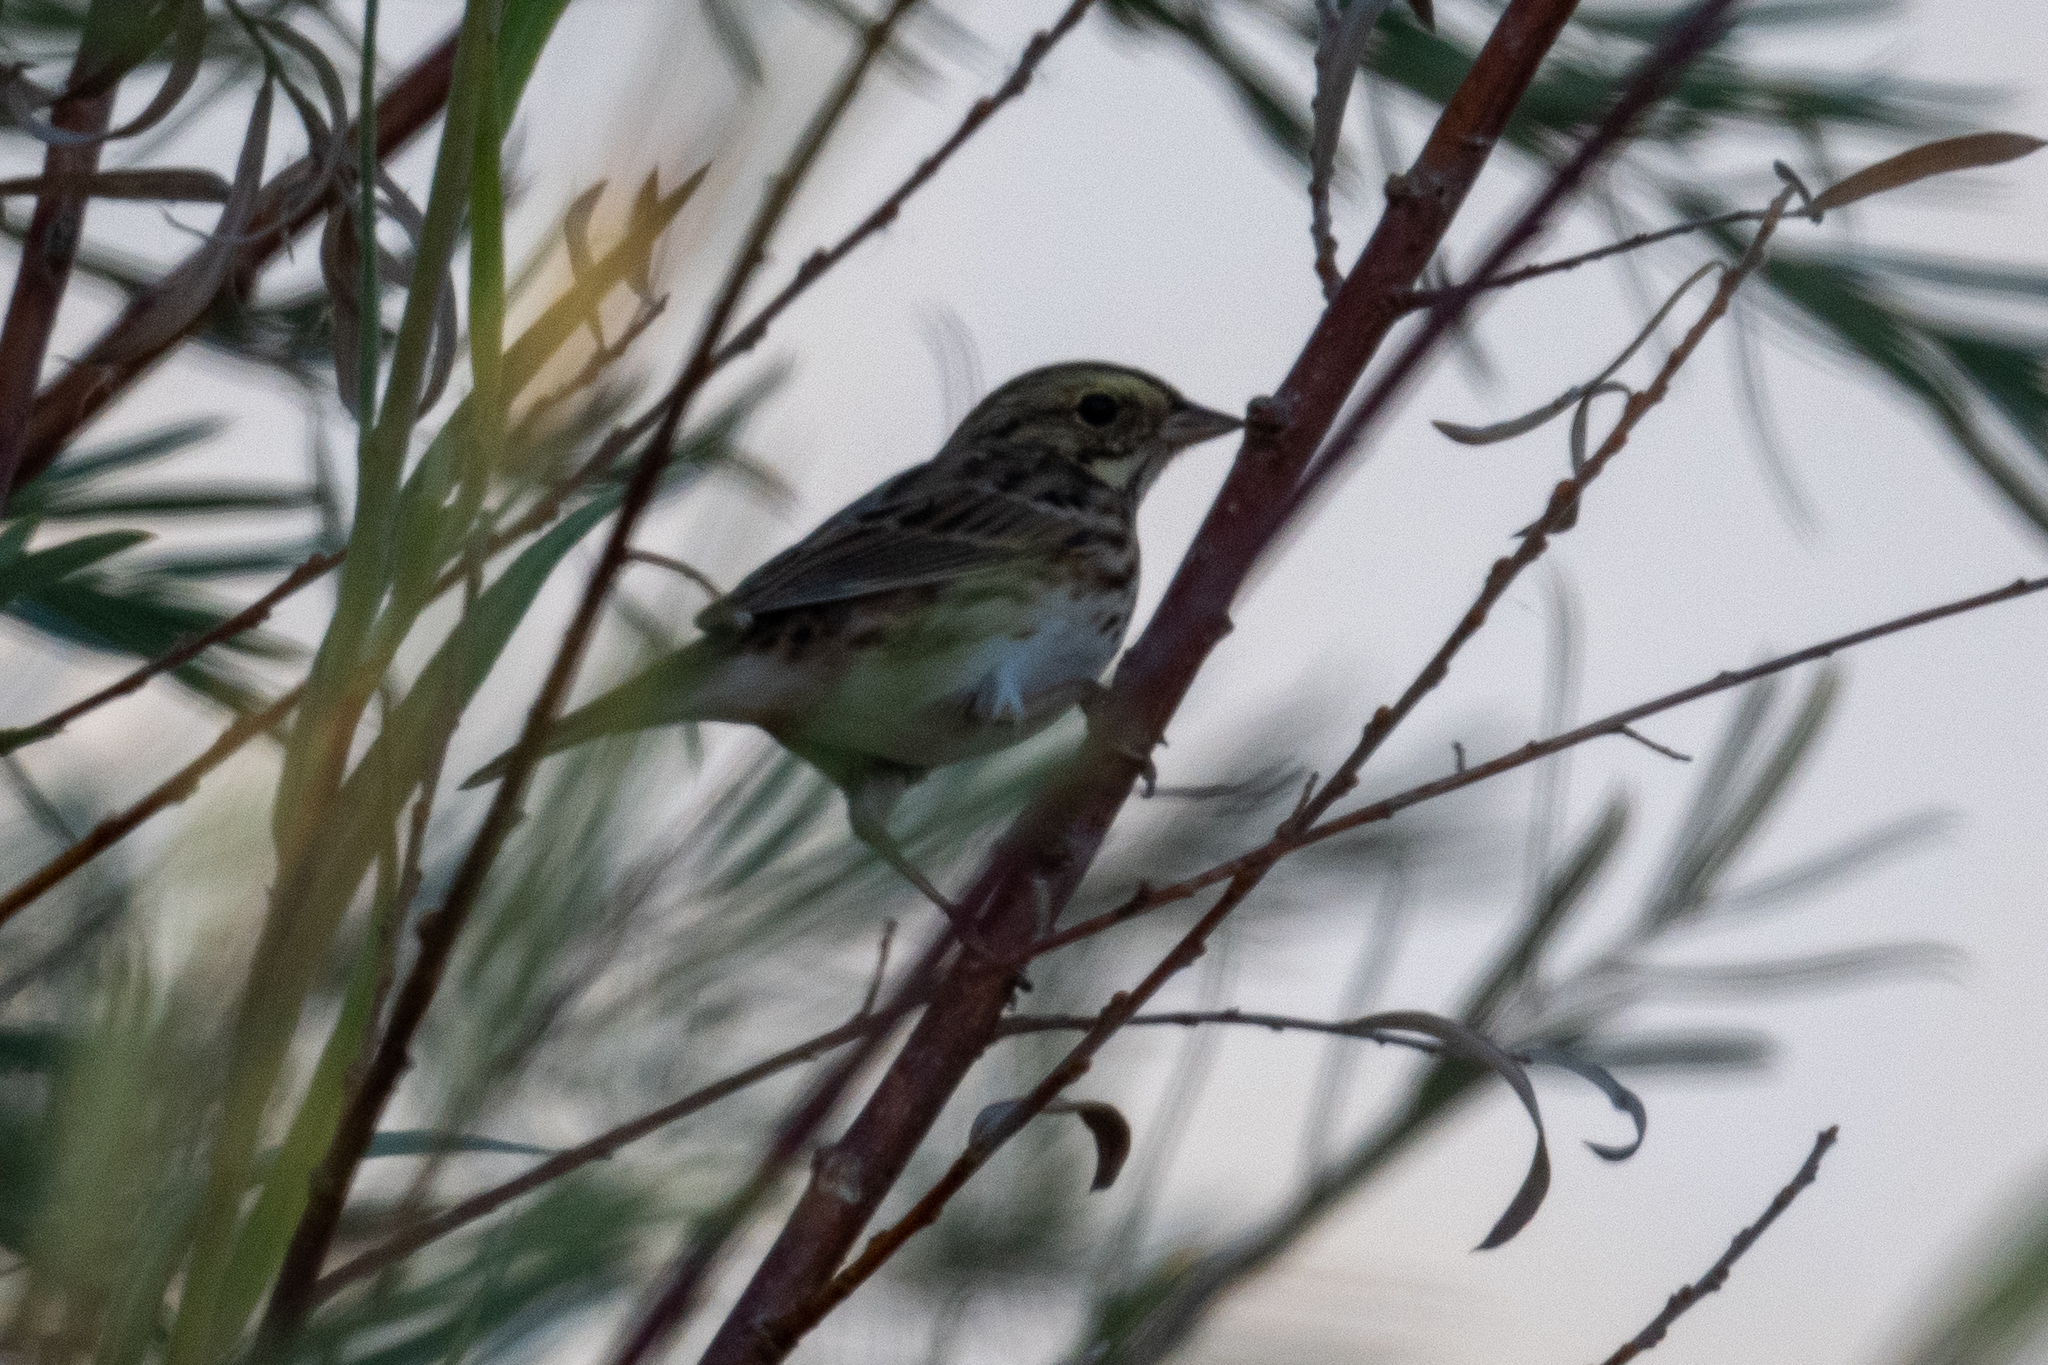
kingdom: Animalia
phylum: Chordata
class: Aves
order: Passeriformes
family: Passerellidae
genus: Passerculus
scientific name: Passerculus sandwichensis
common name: Savannah sparrow
